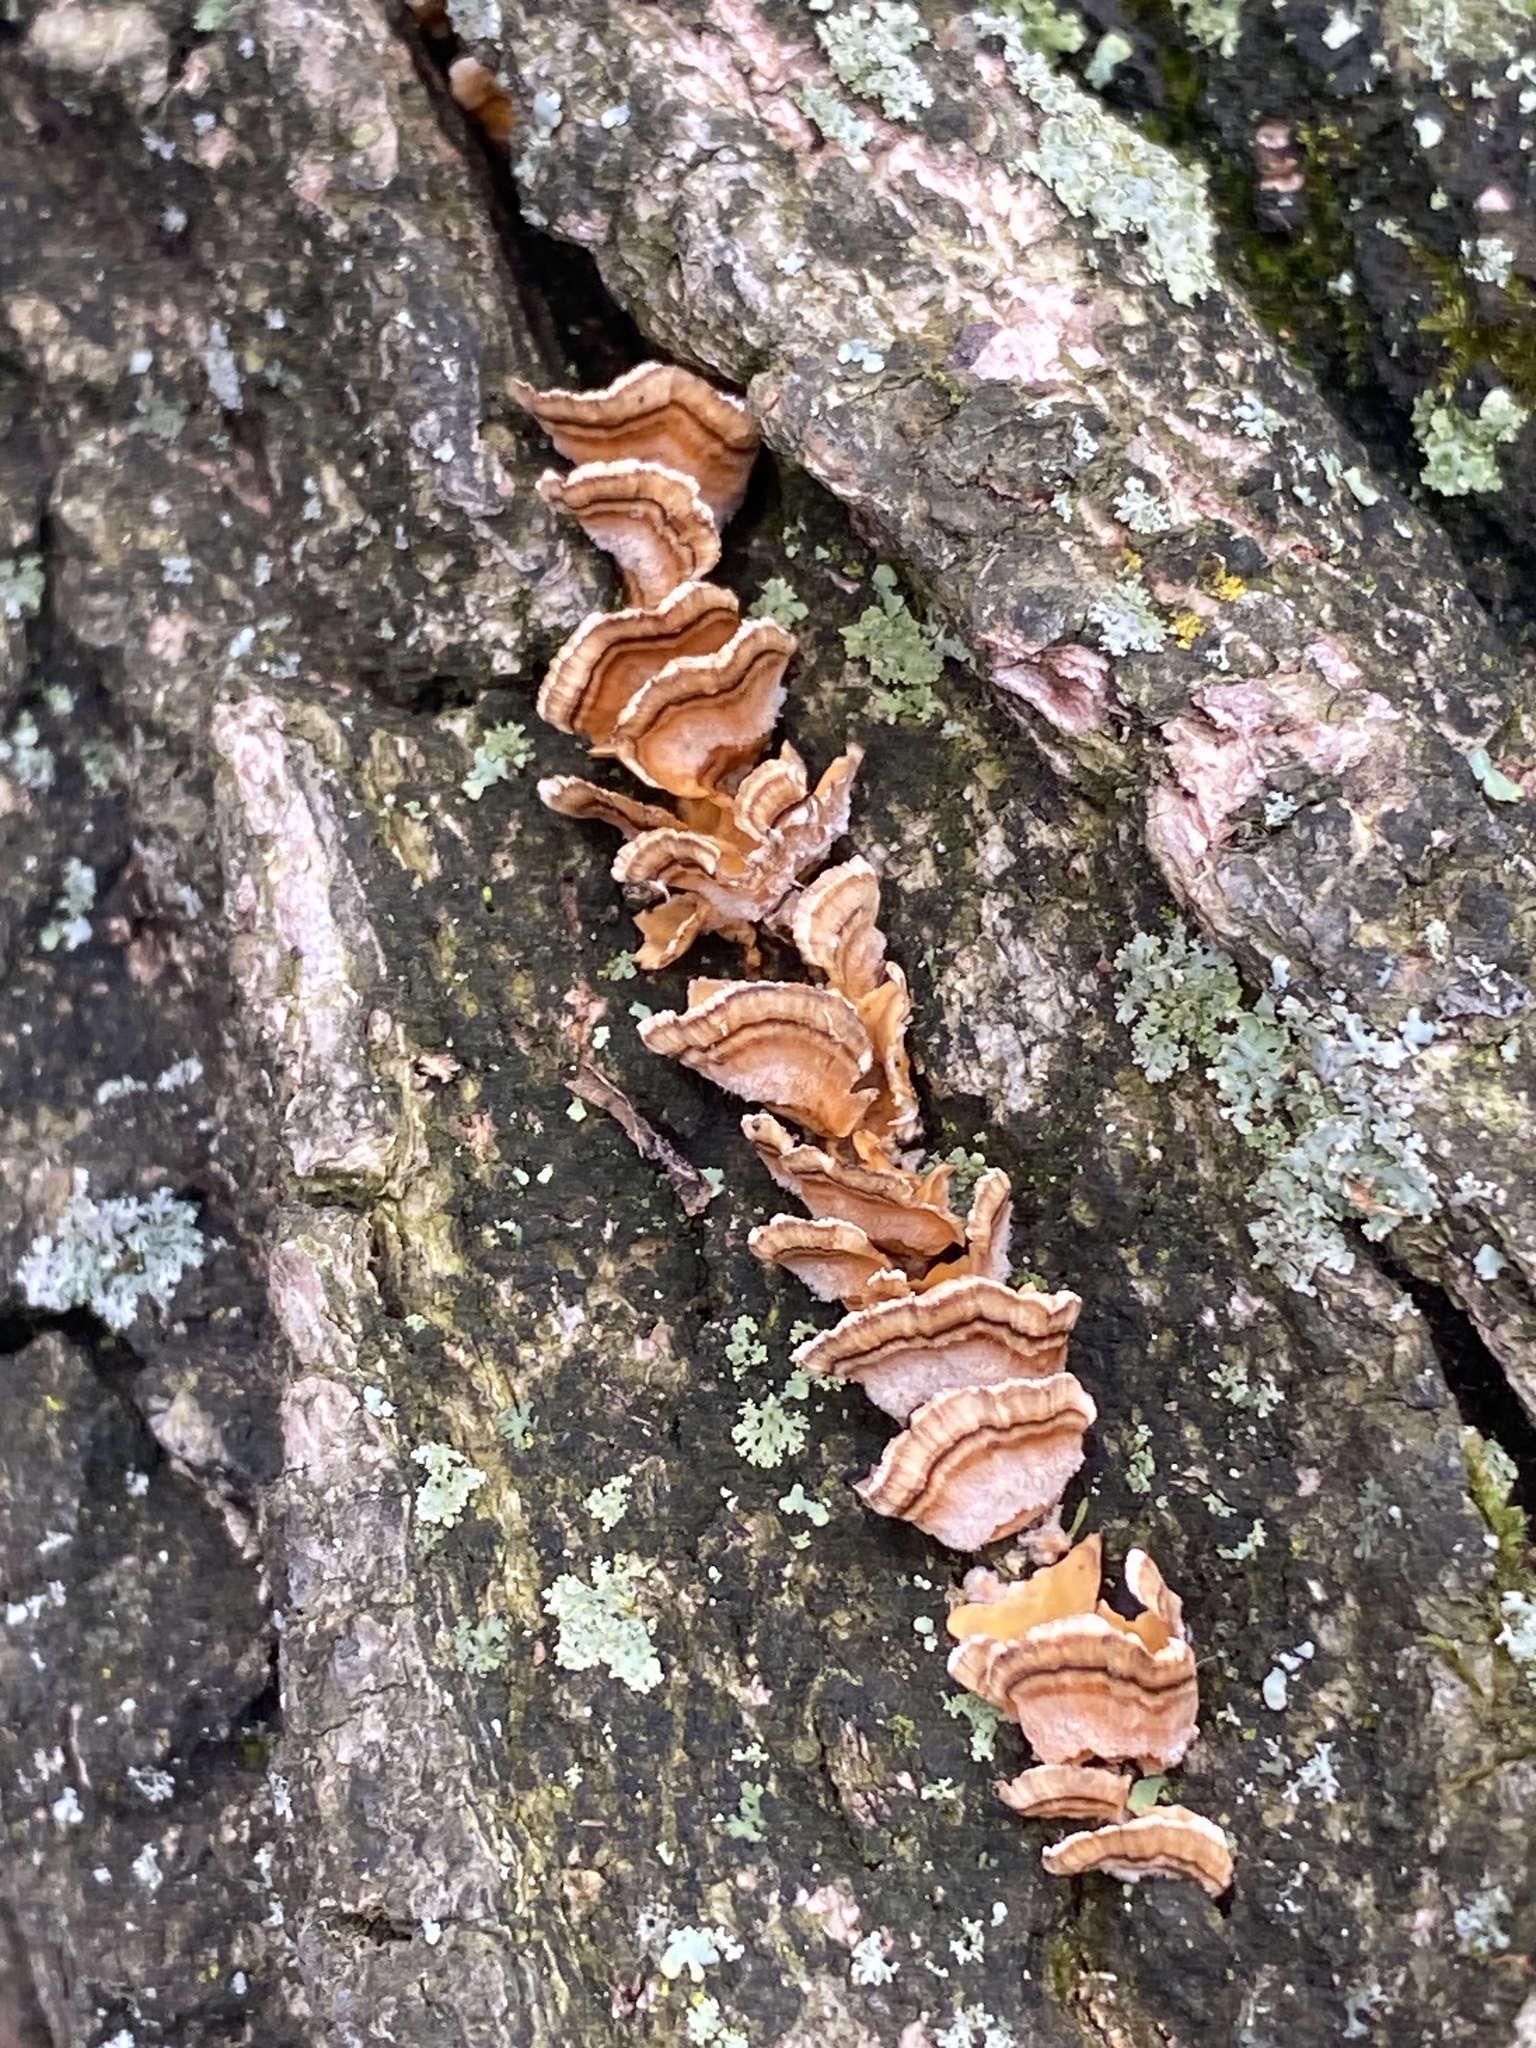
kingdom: Fungi
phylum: Basidiomycota
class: Agaricomycetes
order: Russulales
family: Stereaceae
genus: Stereum
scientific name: Stereum complicatum
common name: Crowded parchment
